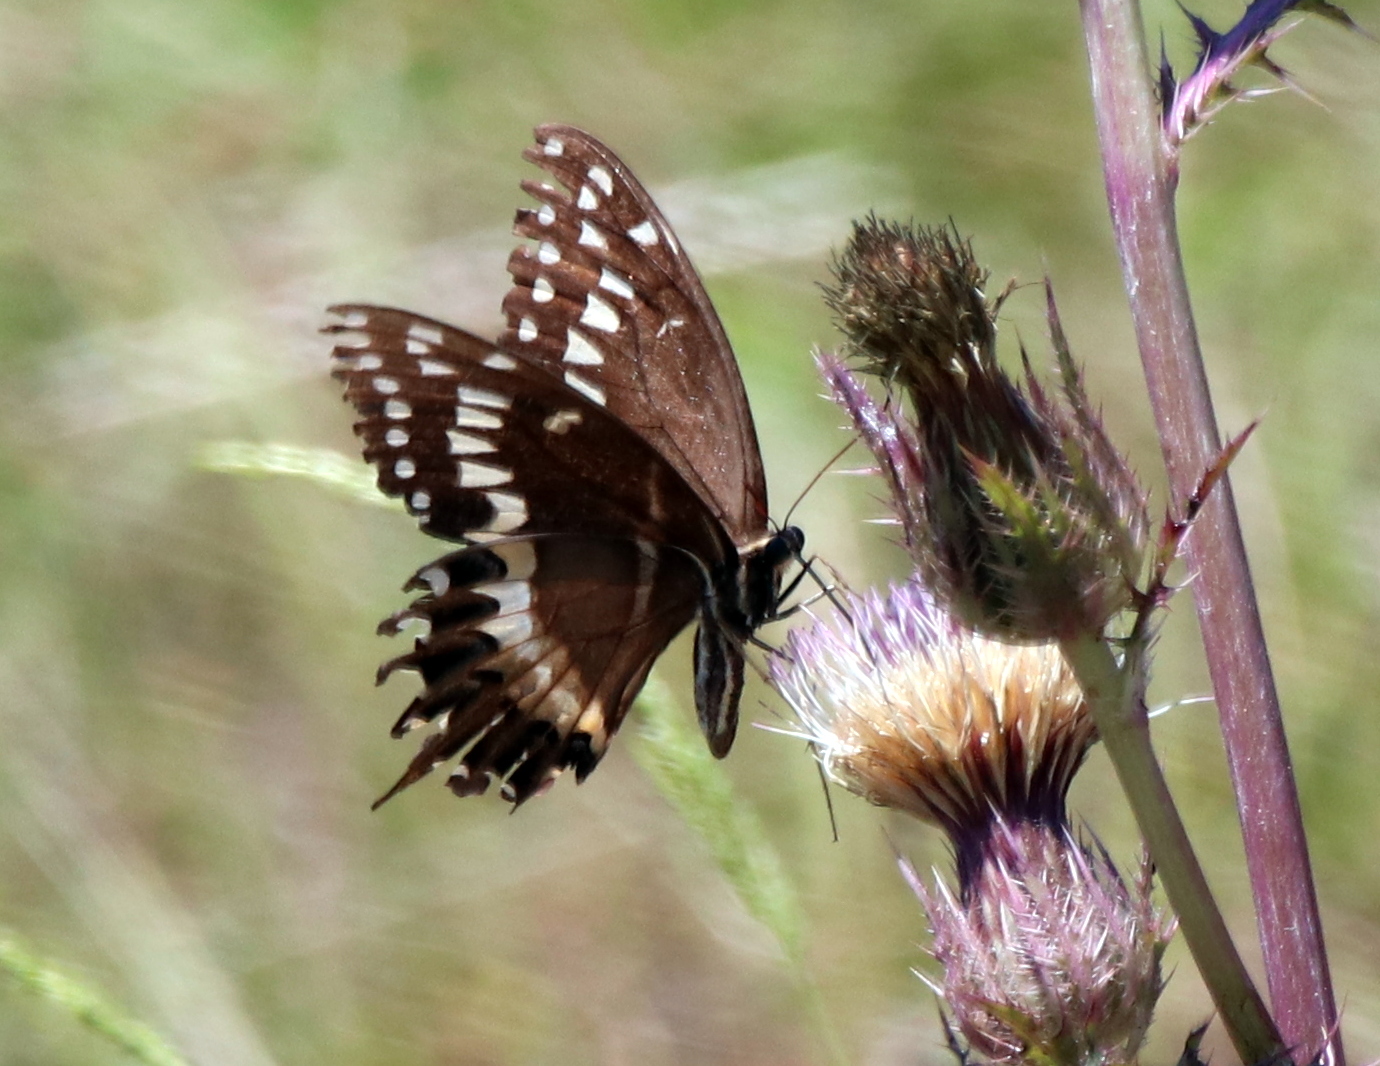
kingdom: Animalia
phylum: Arthropoda
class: Insecta
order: Lepidoptera
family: Papilionidae
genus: Papilio
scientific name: Papilio palamedes
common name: Palamedes swallowtail
